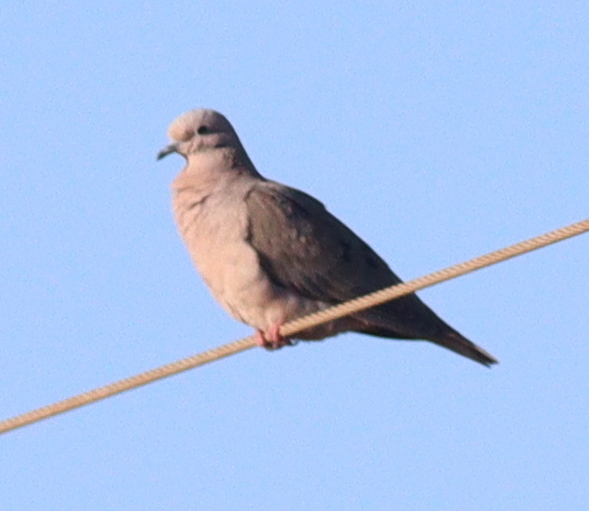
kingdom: Animalia
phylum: Chordata
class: Aves
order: Columbiformes
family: Columbidae
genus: Zenaida
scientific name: Zenaida auriculata
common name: Eared dove
